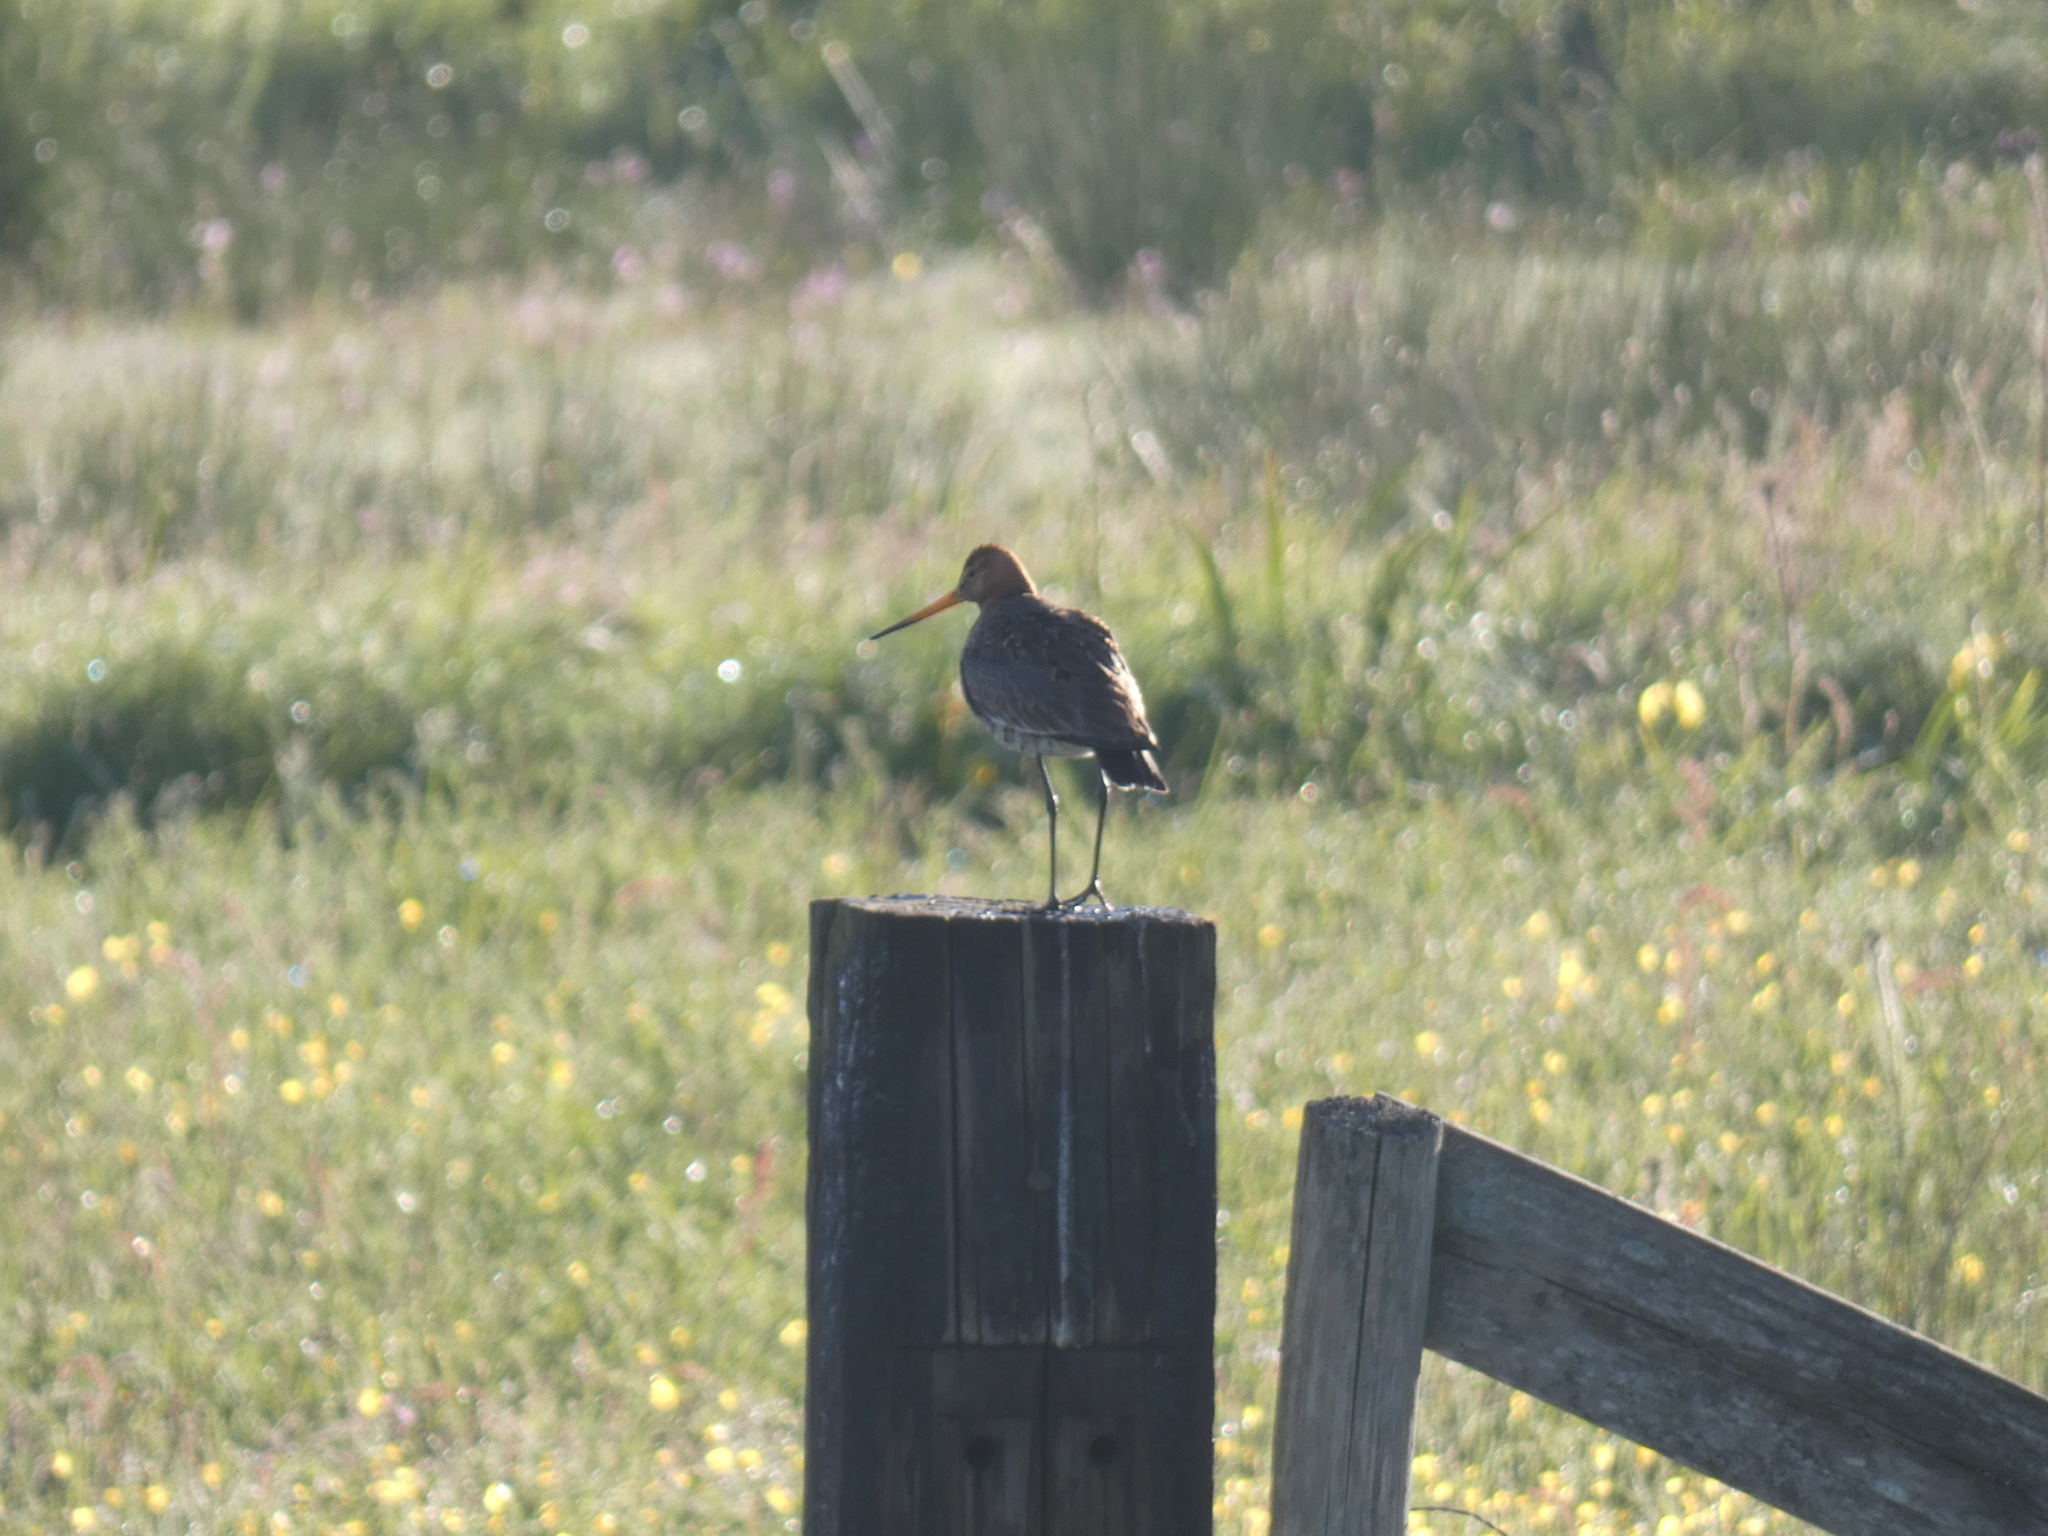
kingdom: Animalia
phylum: Chordata
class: Aves
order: Charadriiformes
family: Scolopacidae
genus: Limosa
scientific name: Limosa limosa
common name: Black-tailed godwit
